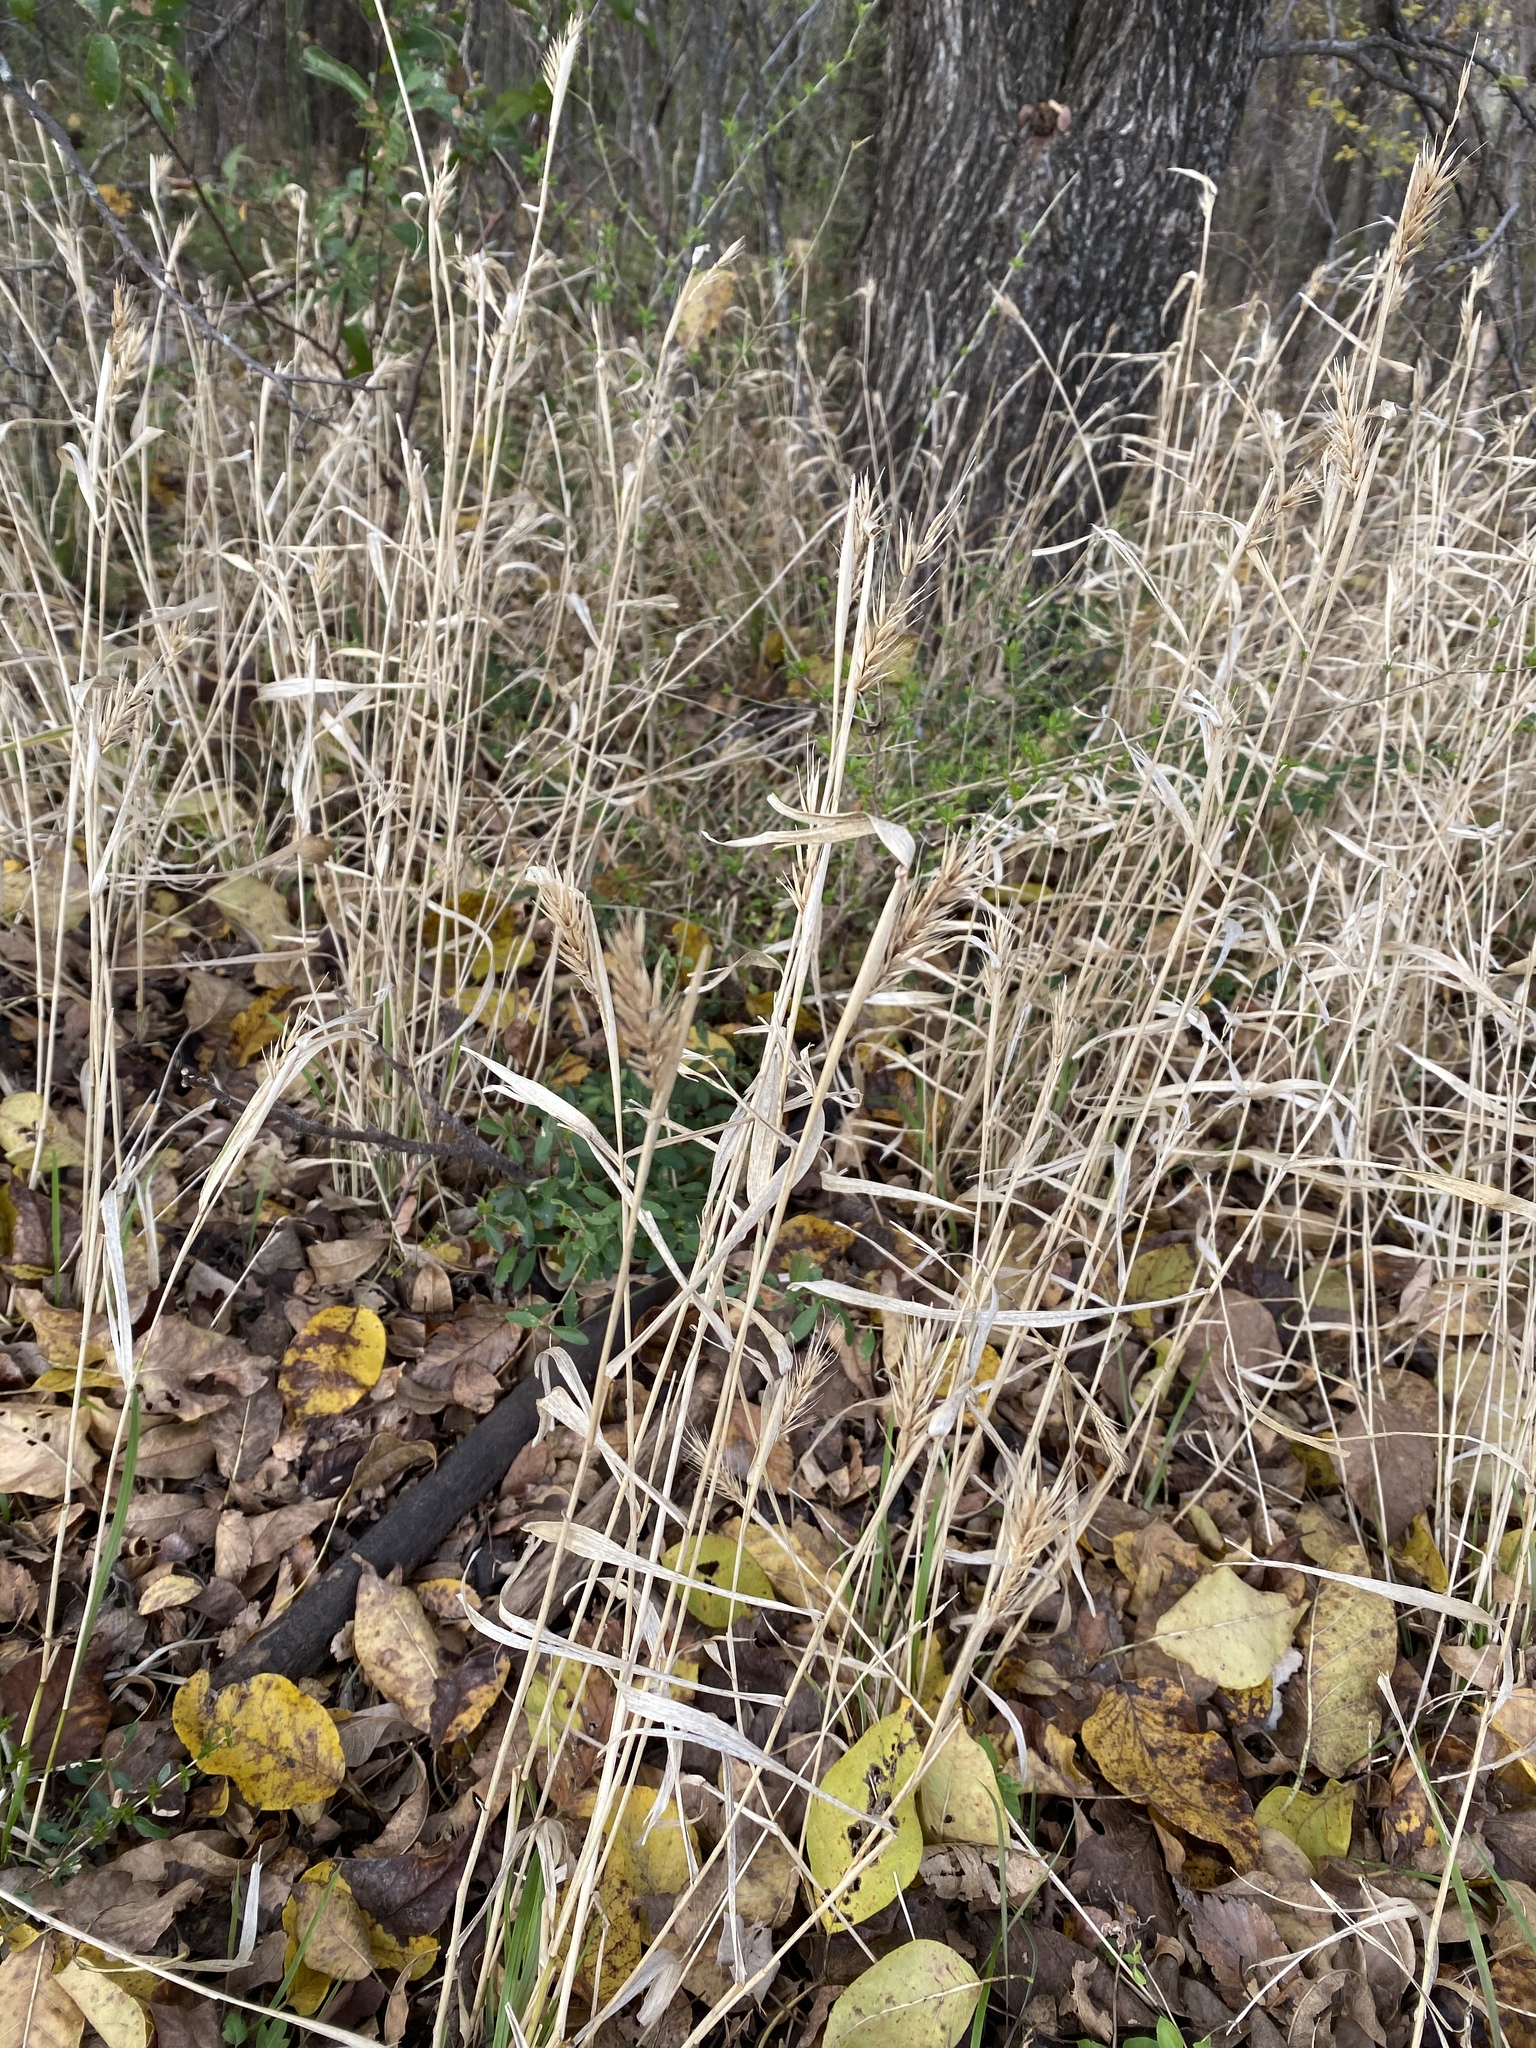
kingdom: Plantae
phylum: Tracheophyta
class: Liliopsida
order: Poales
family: Poaceae
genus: Elymus
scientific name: Elymus virginicus
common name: Common eastern wildrye
